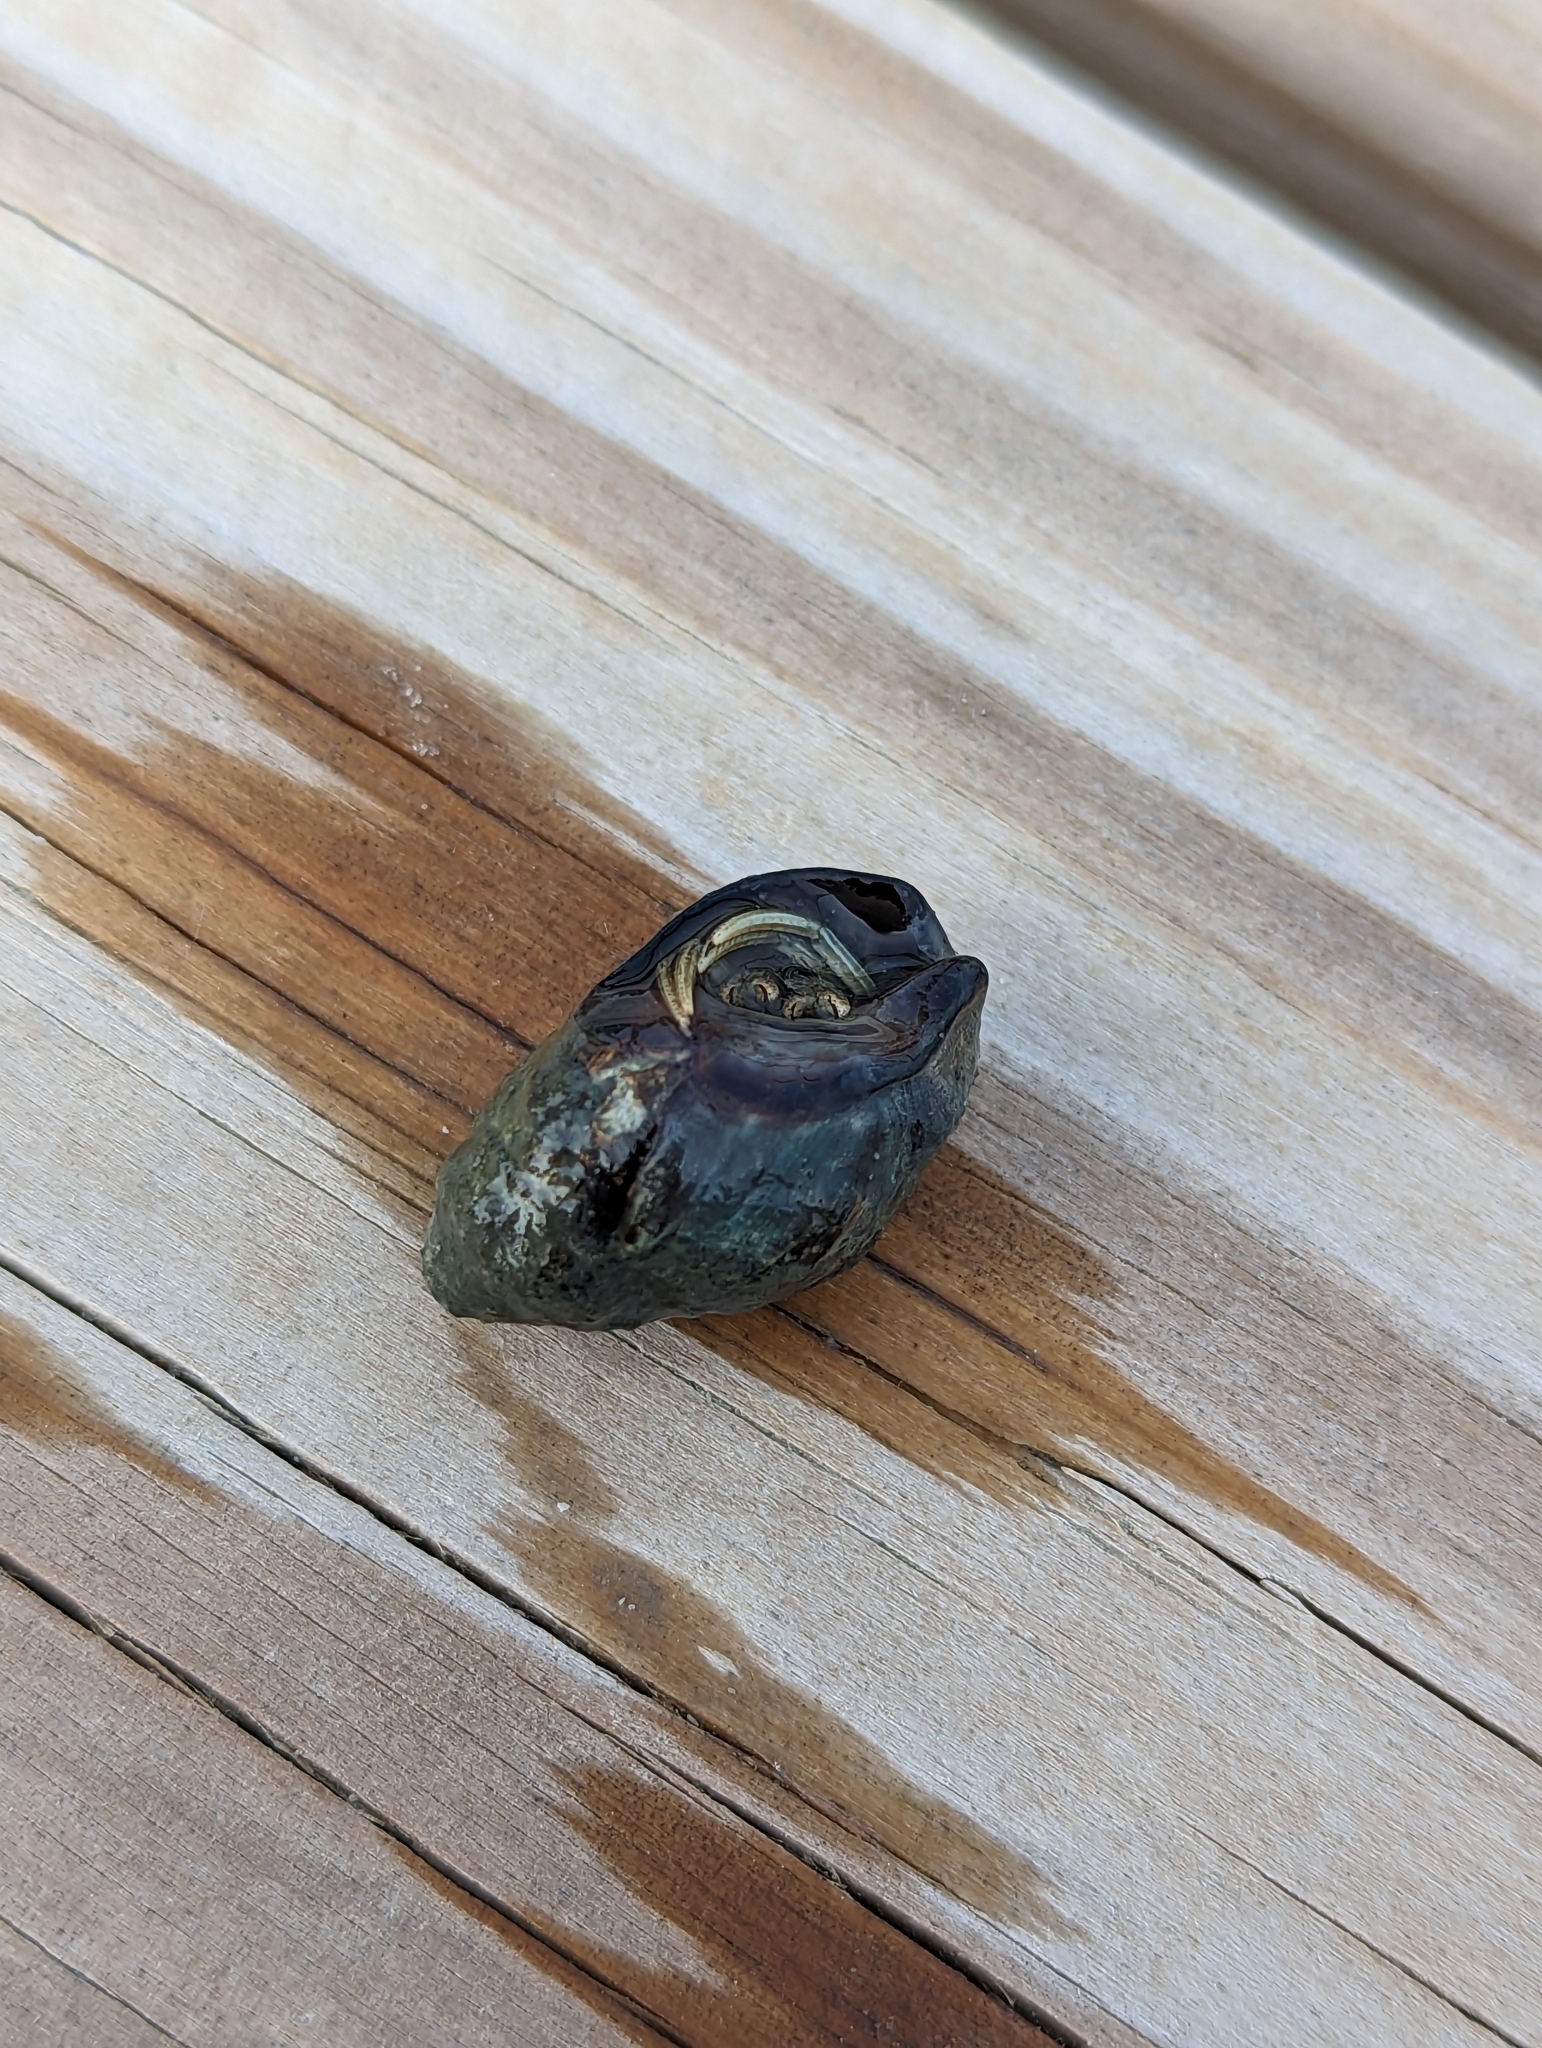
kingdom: Animalia
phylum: Arthropoda
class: Malacostraca
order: Decapoda
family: Diogenidae
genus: Clibanarius
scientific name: Clibanarius vittatus
